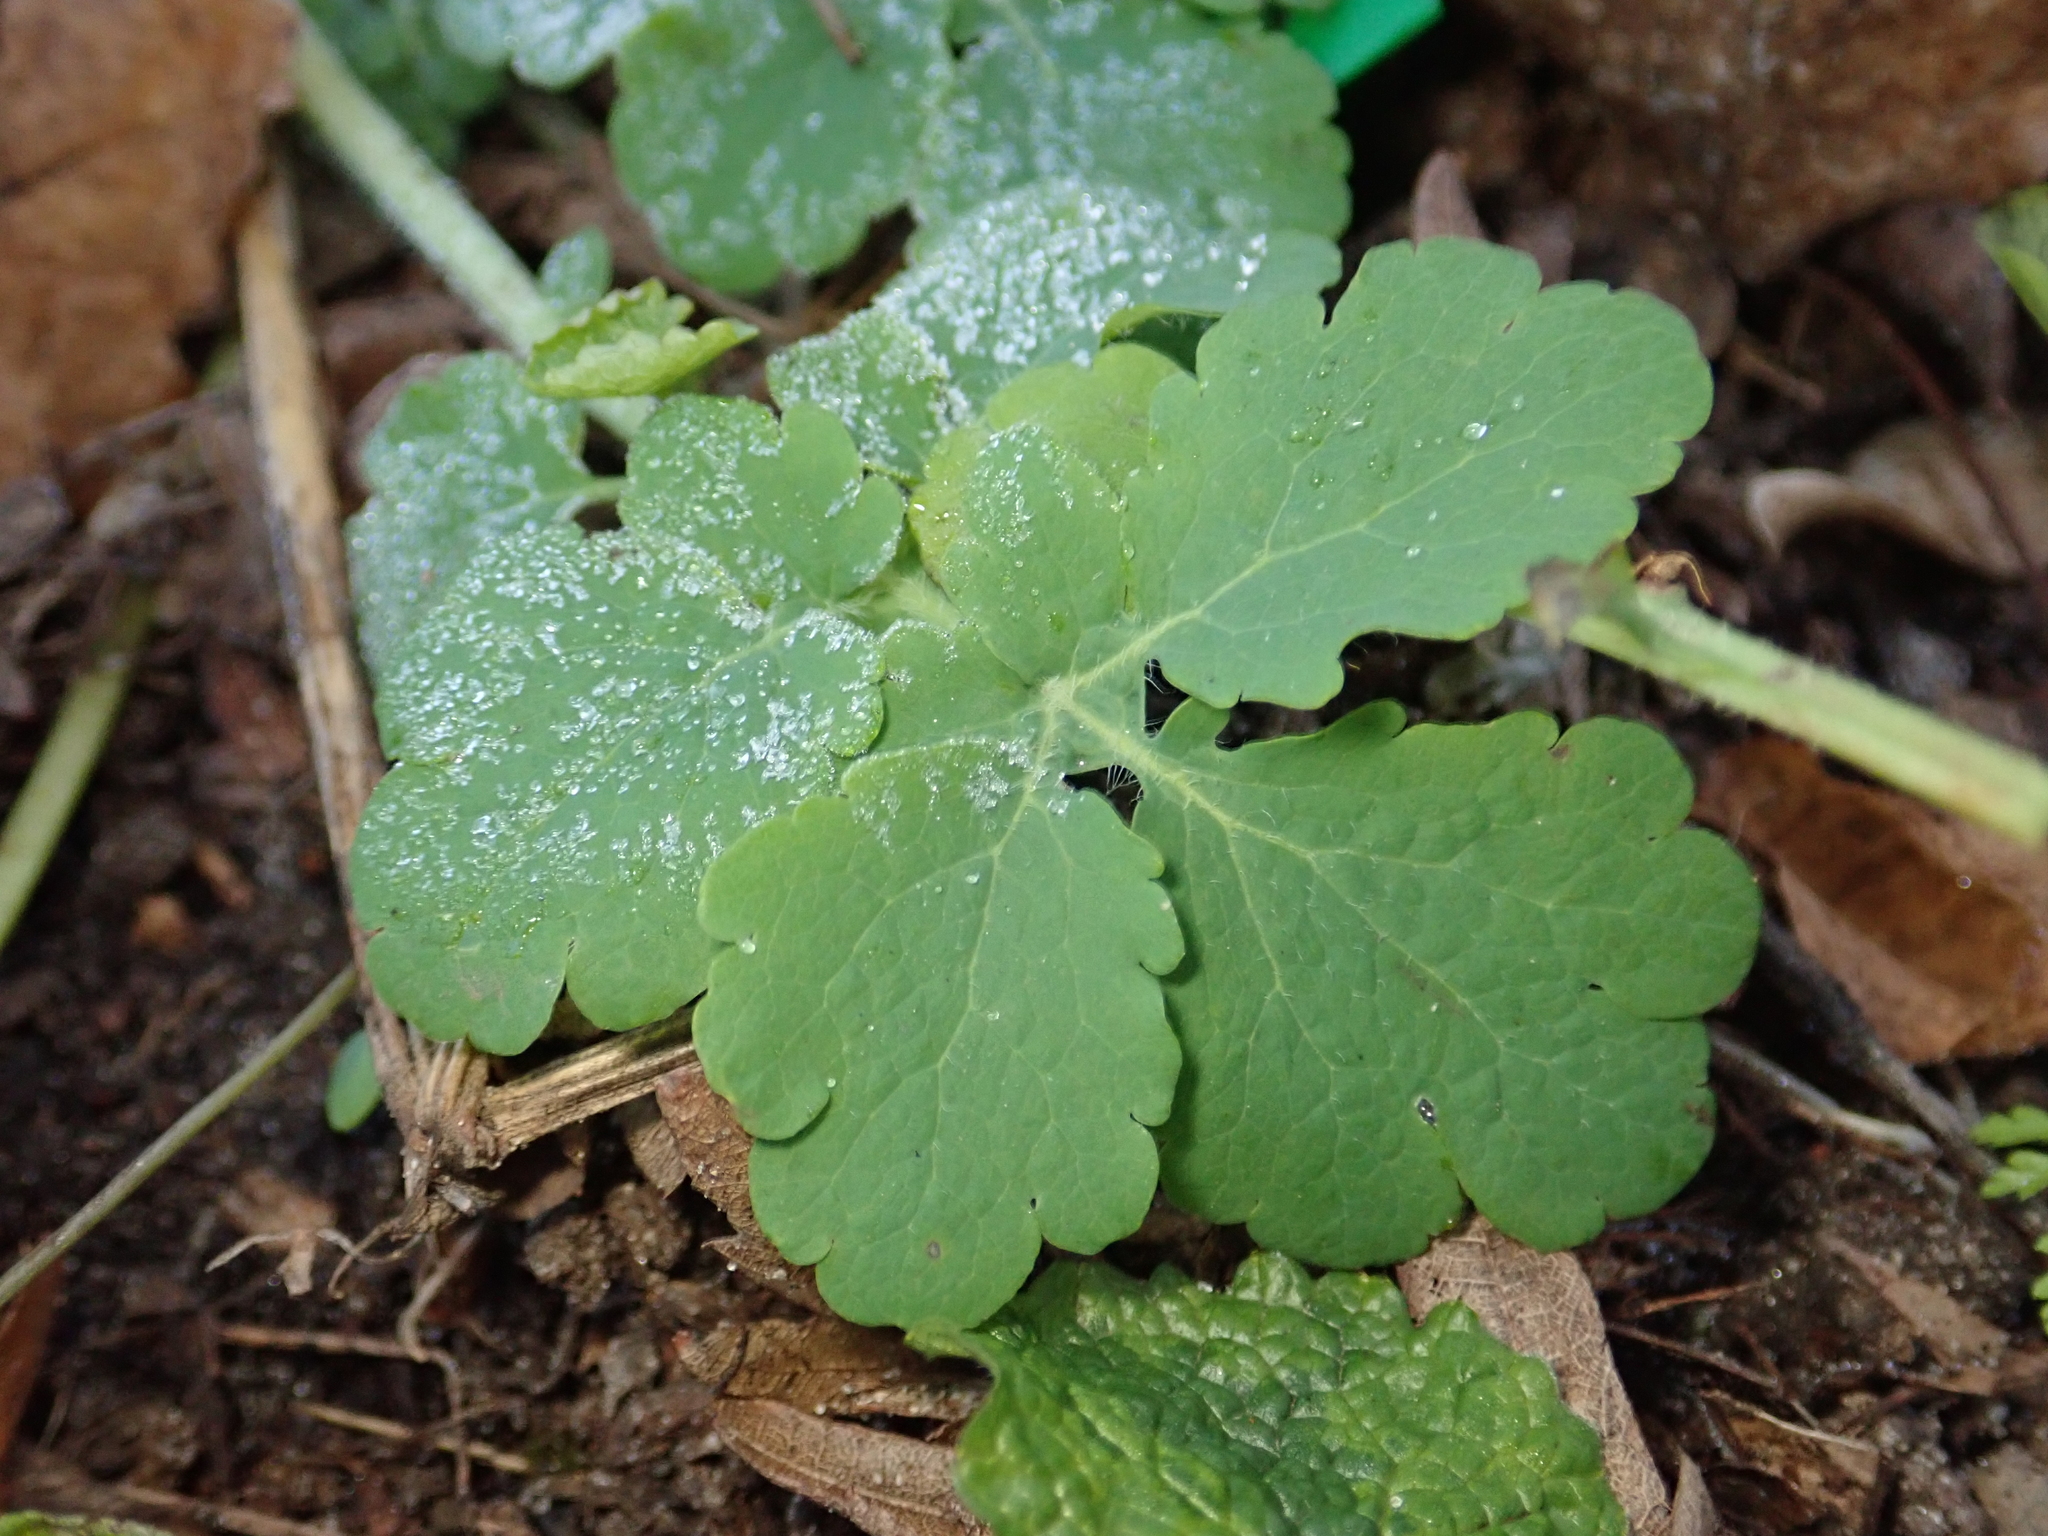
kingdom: Plantae
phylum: Tracheophyta
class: Magnoliopsida
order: Ranunculales
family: Papaveraceae
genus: Chelidonium
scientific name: Chelidonium majus
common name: Greater celandine
